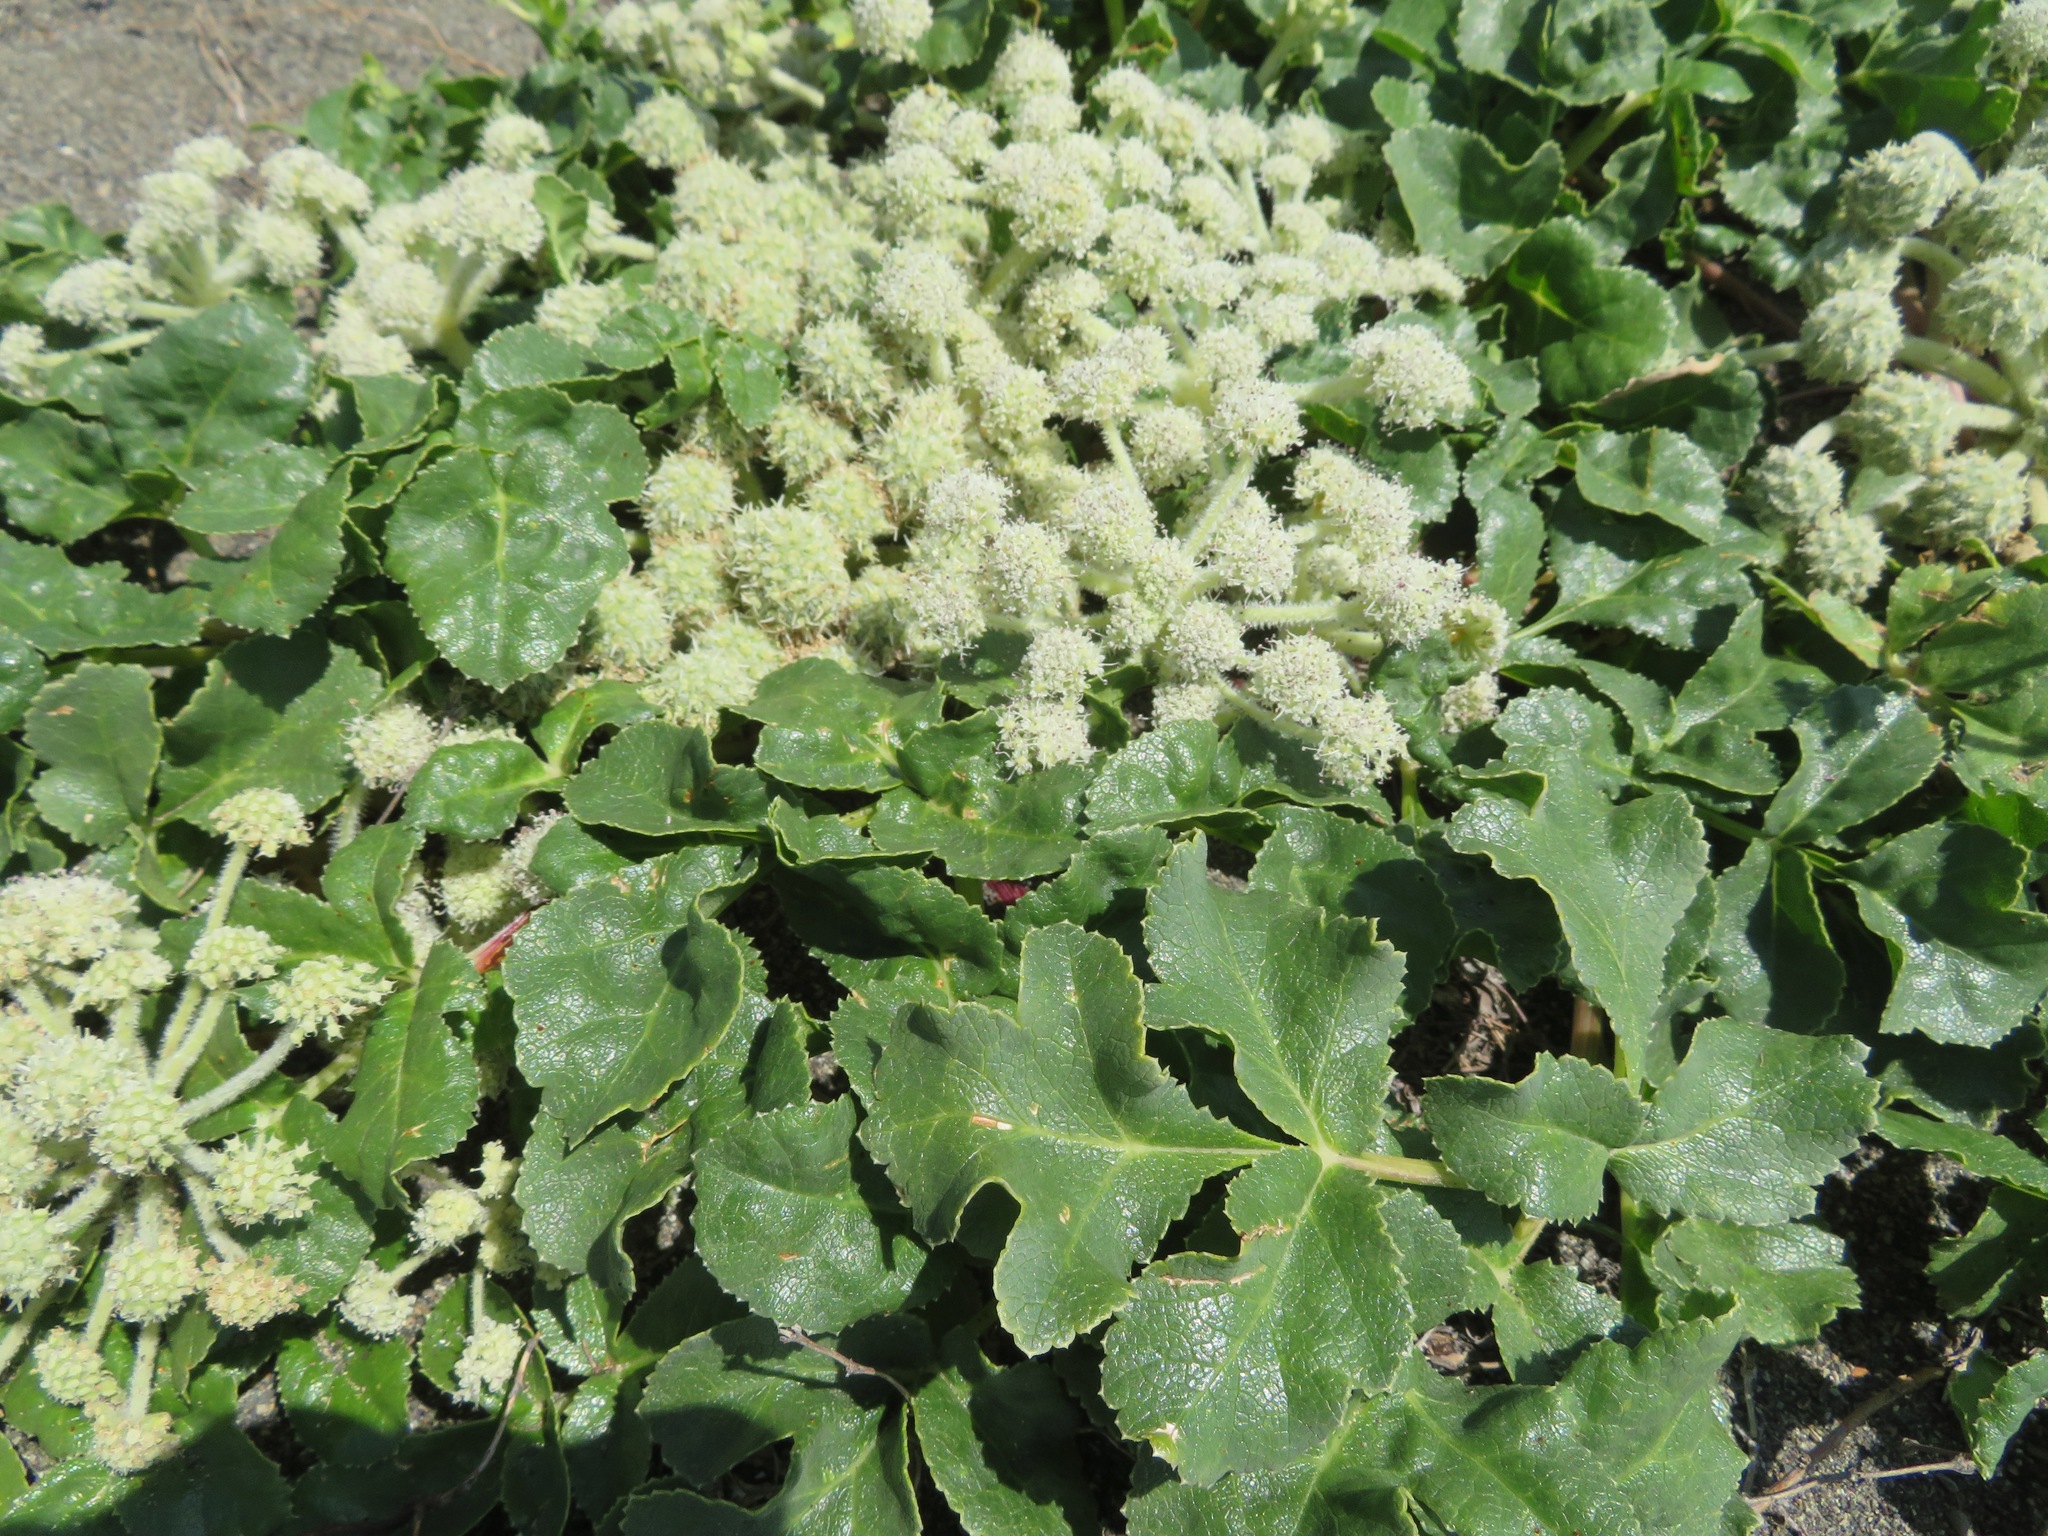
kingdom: Plantae
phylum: Tracheophyta
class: Magnoliopsida
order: Apiales
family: Apiaceae
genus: Glehnia
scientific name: Glehnia littoralis
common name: Beach silvertop
